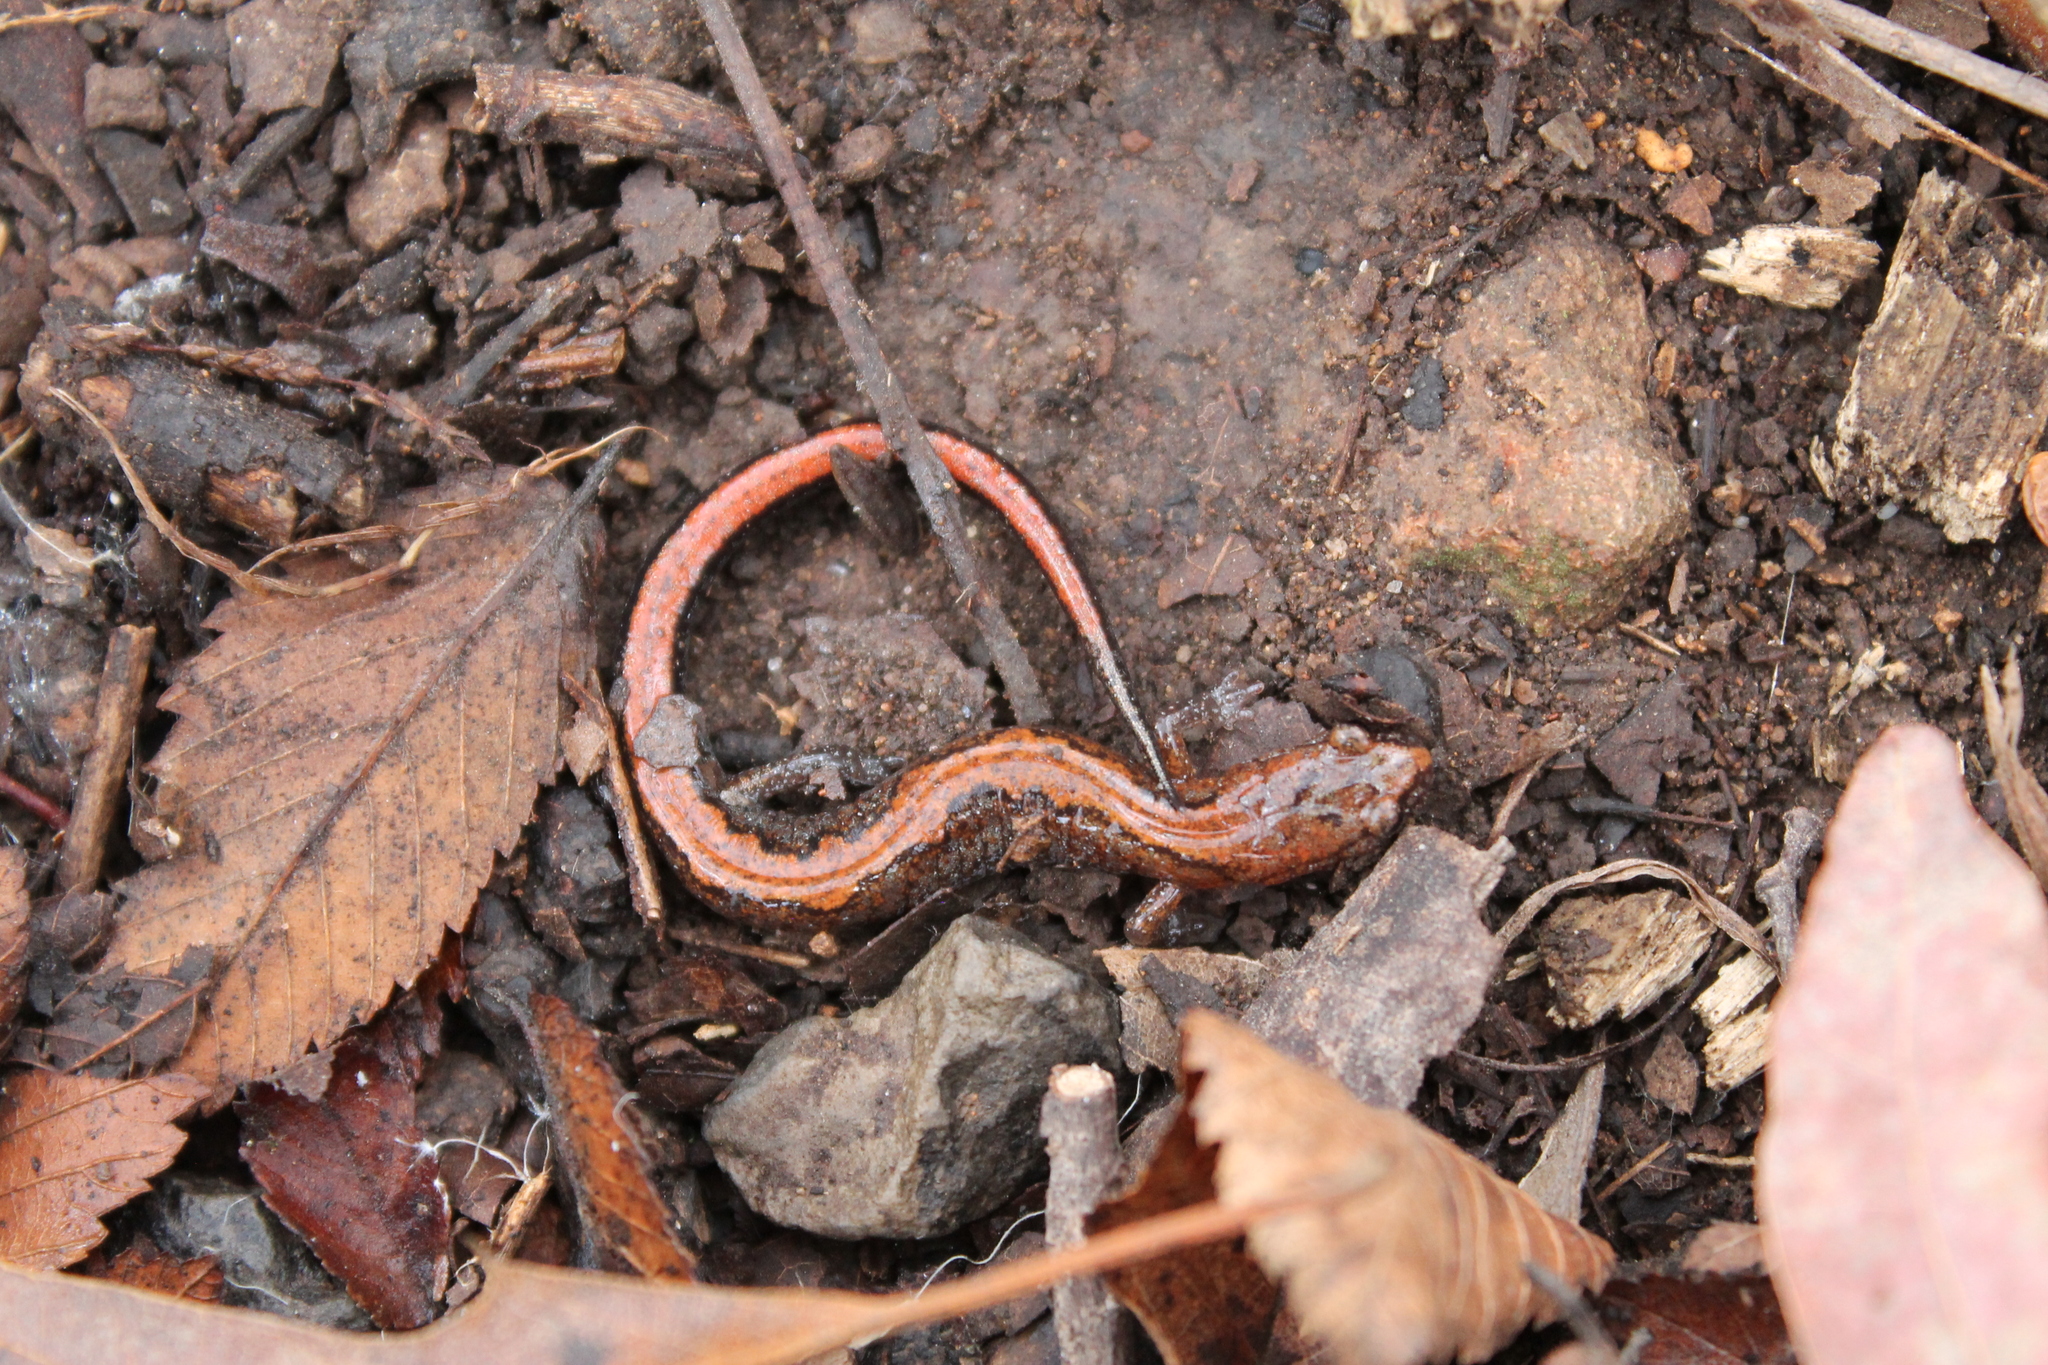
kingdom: Animalia
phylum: Chordata
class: Amphibia
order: Caudata
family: Plethodontidae
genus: Plethodon
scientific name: Plethodon dorsalis
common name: Northern zigzag salamander
